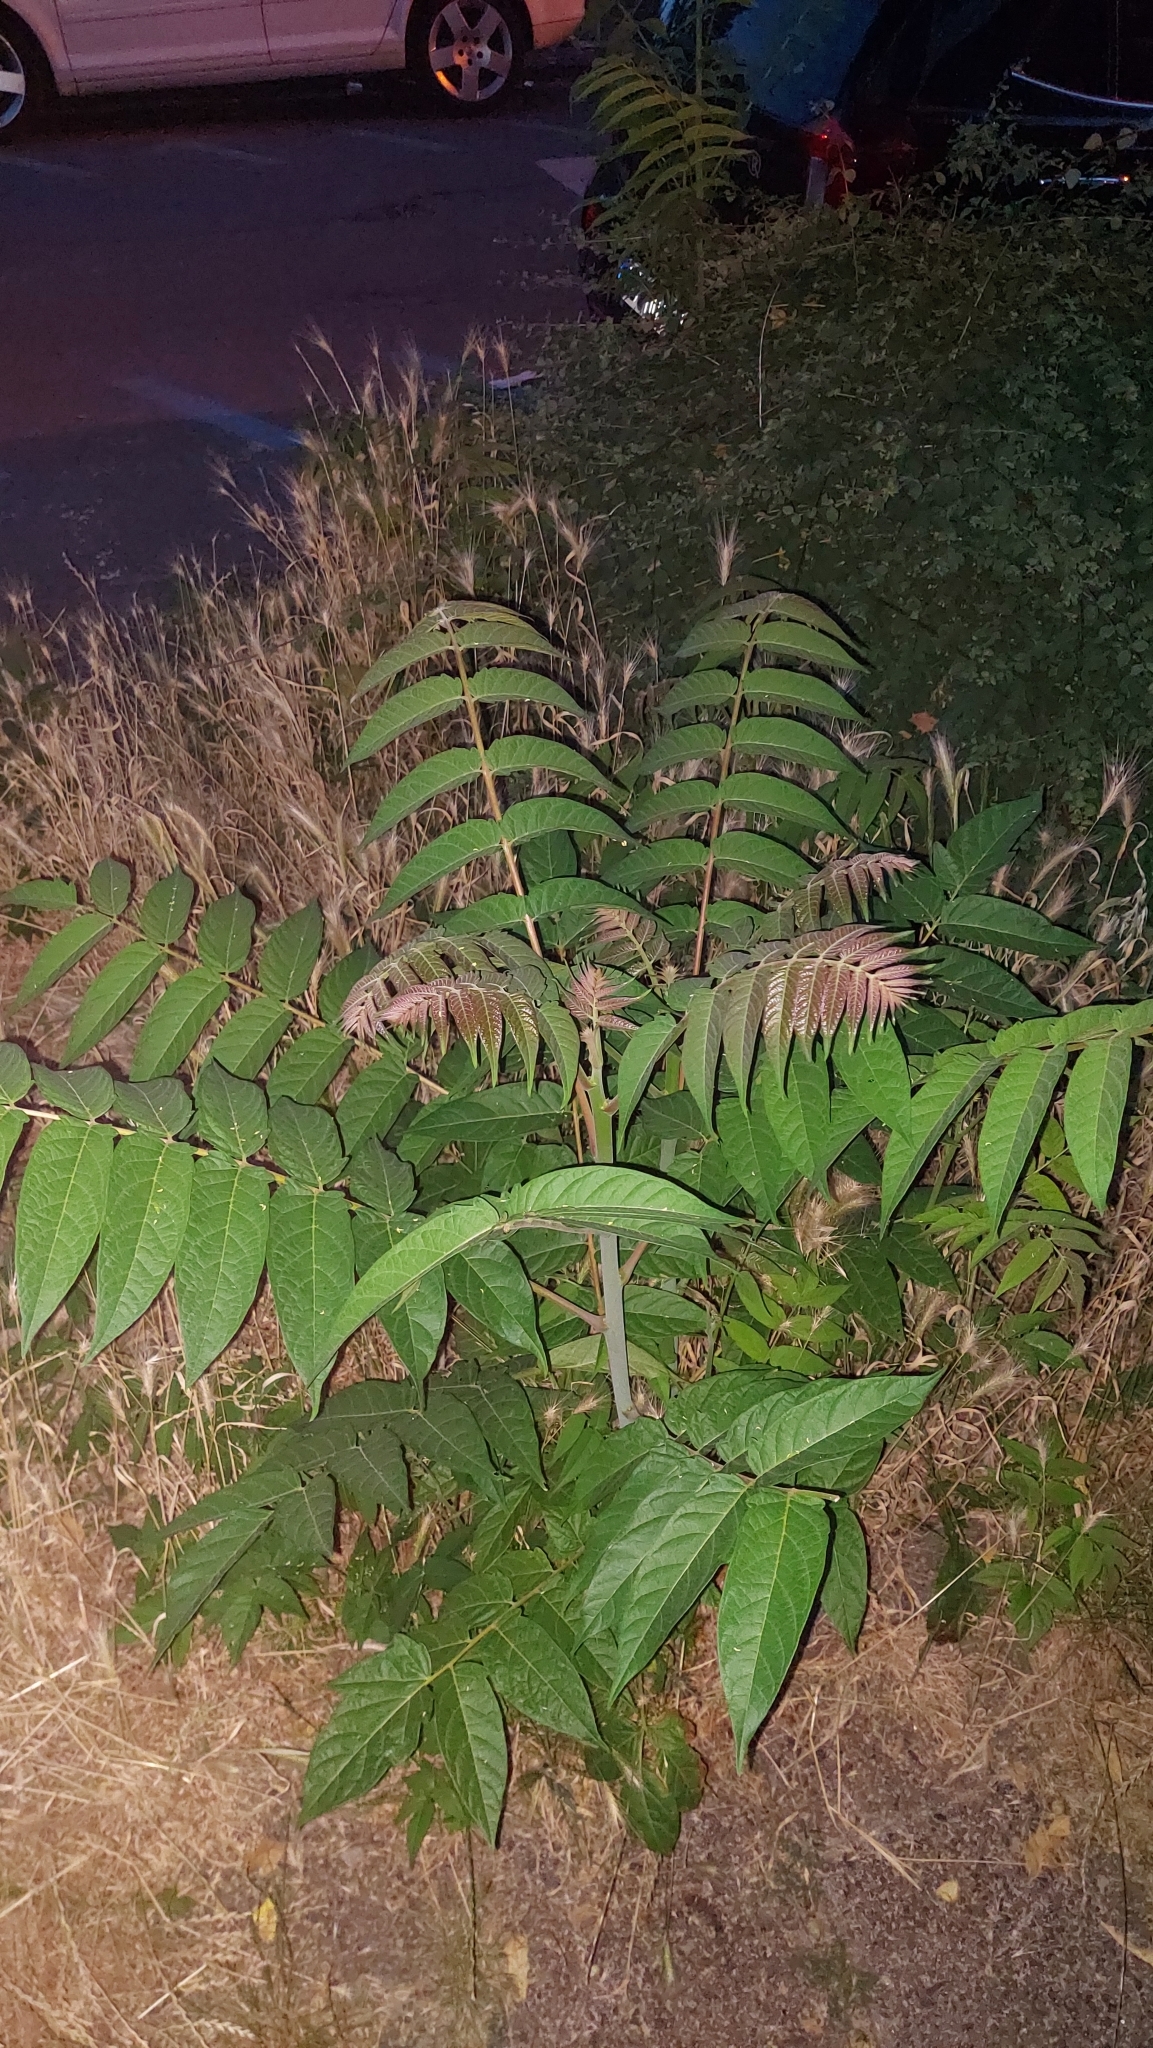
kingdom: Plantae
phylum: Tracheophyta
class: Magnoliopsida
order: Sapindales
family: Simaroubaceae
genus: Ailanthus
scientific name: Ailanthus altissima
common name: Tree-of-heaven
